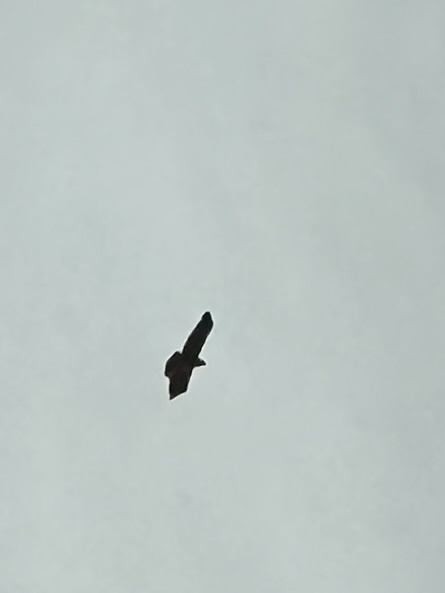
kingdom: Animalia
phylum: Chordata
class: Aves
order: Accipitriformes
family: Accipitridae
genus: Buteo
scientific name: Buteo jamaicensis
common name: Red-tailed hawk
